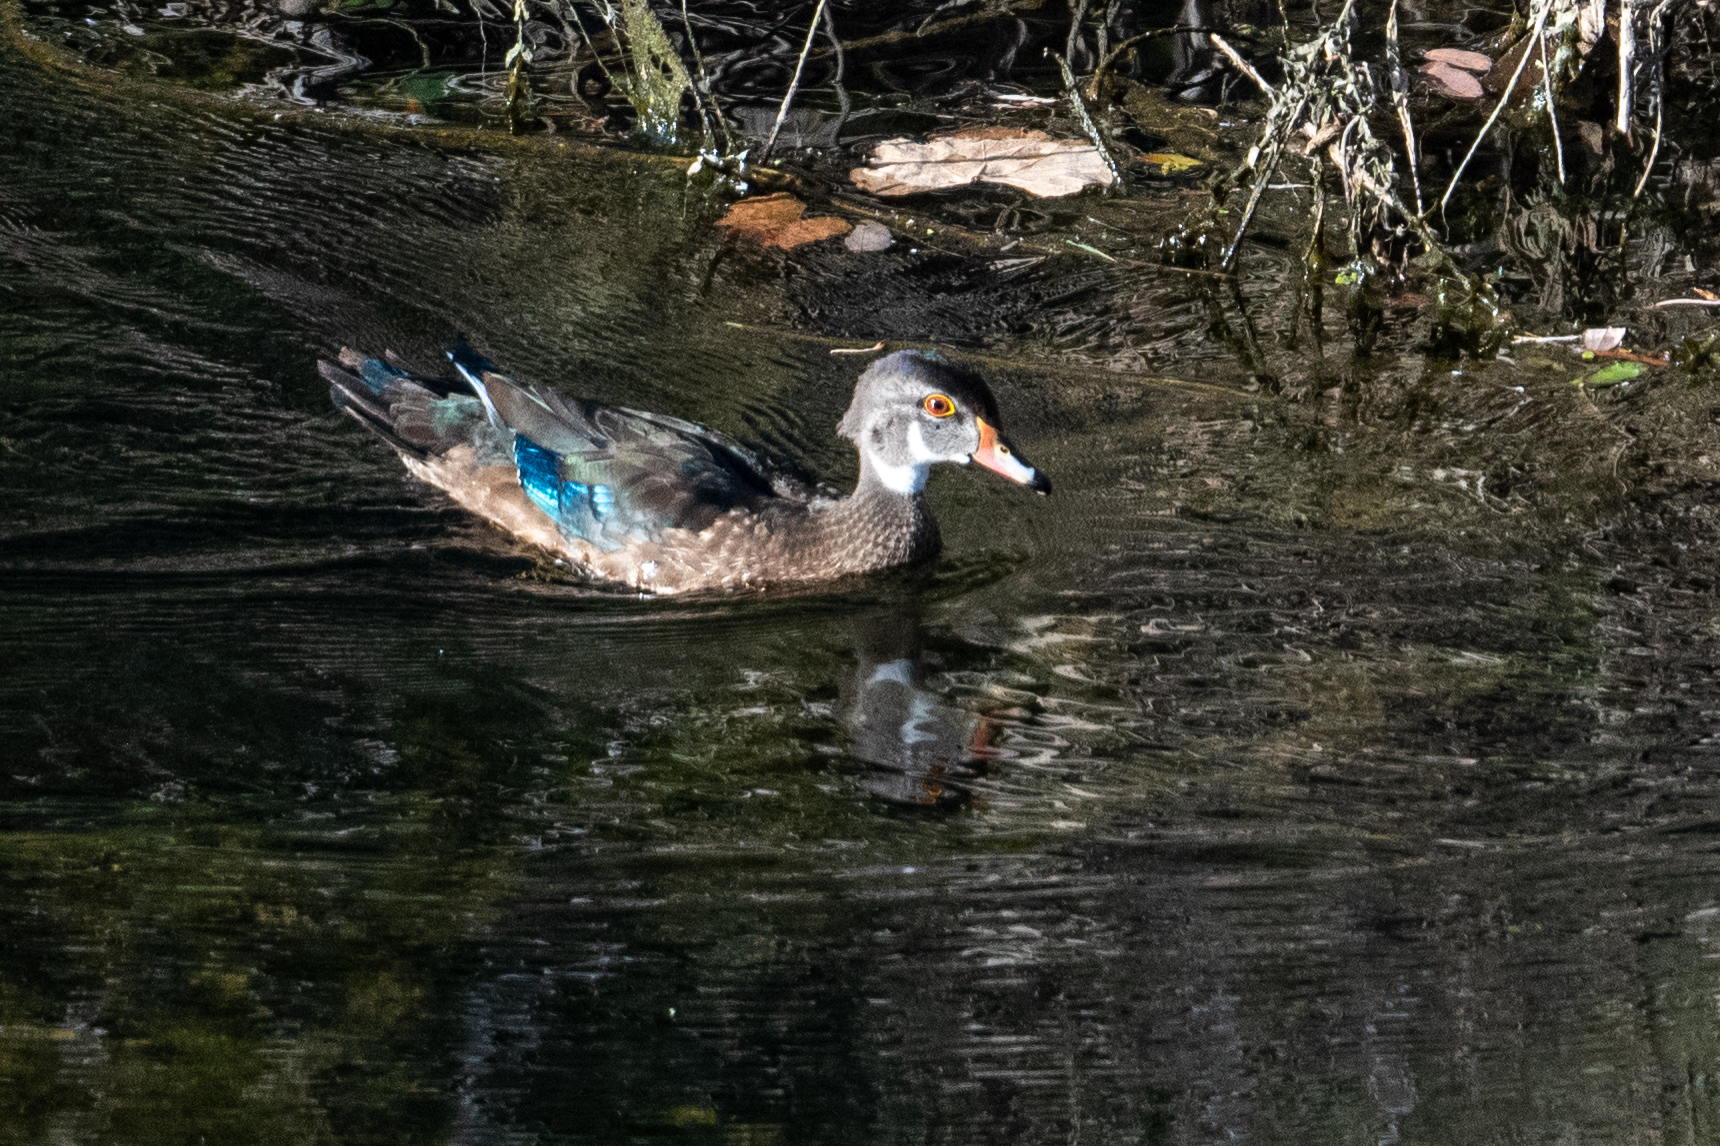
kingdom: Animalia
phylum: Chordata
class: Aves
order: Anseriformes
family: Anatidae
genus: Aix
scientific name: Aix sponsa
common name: Wood duck
